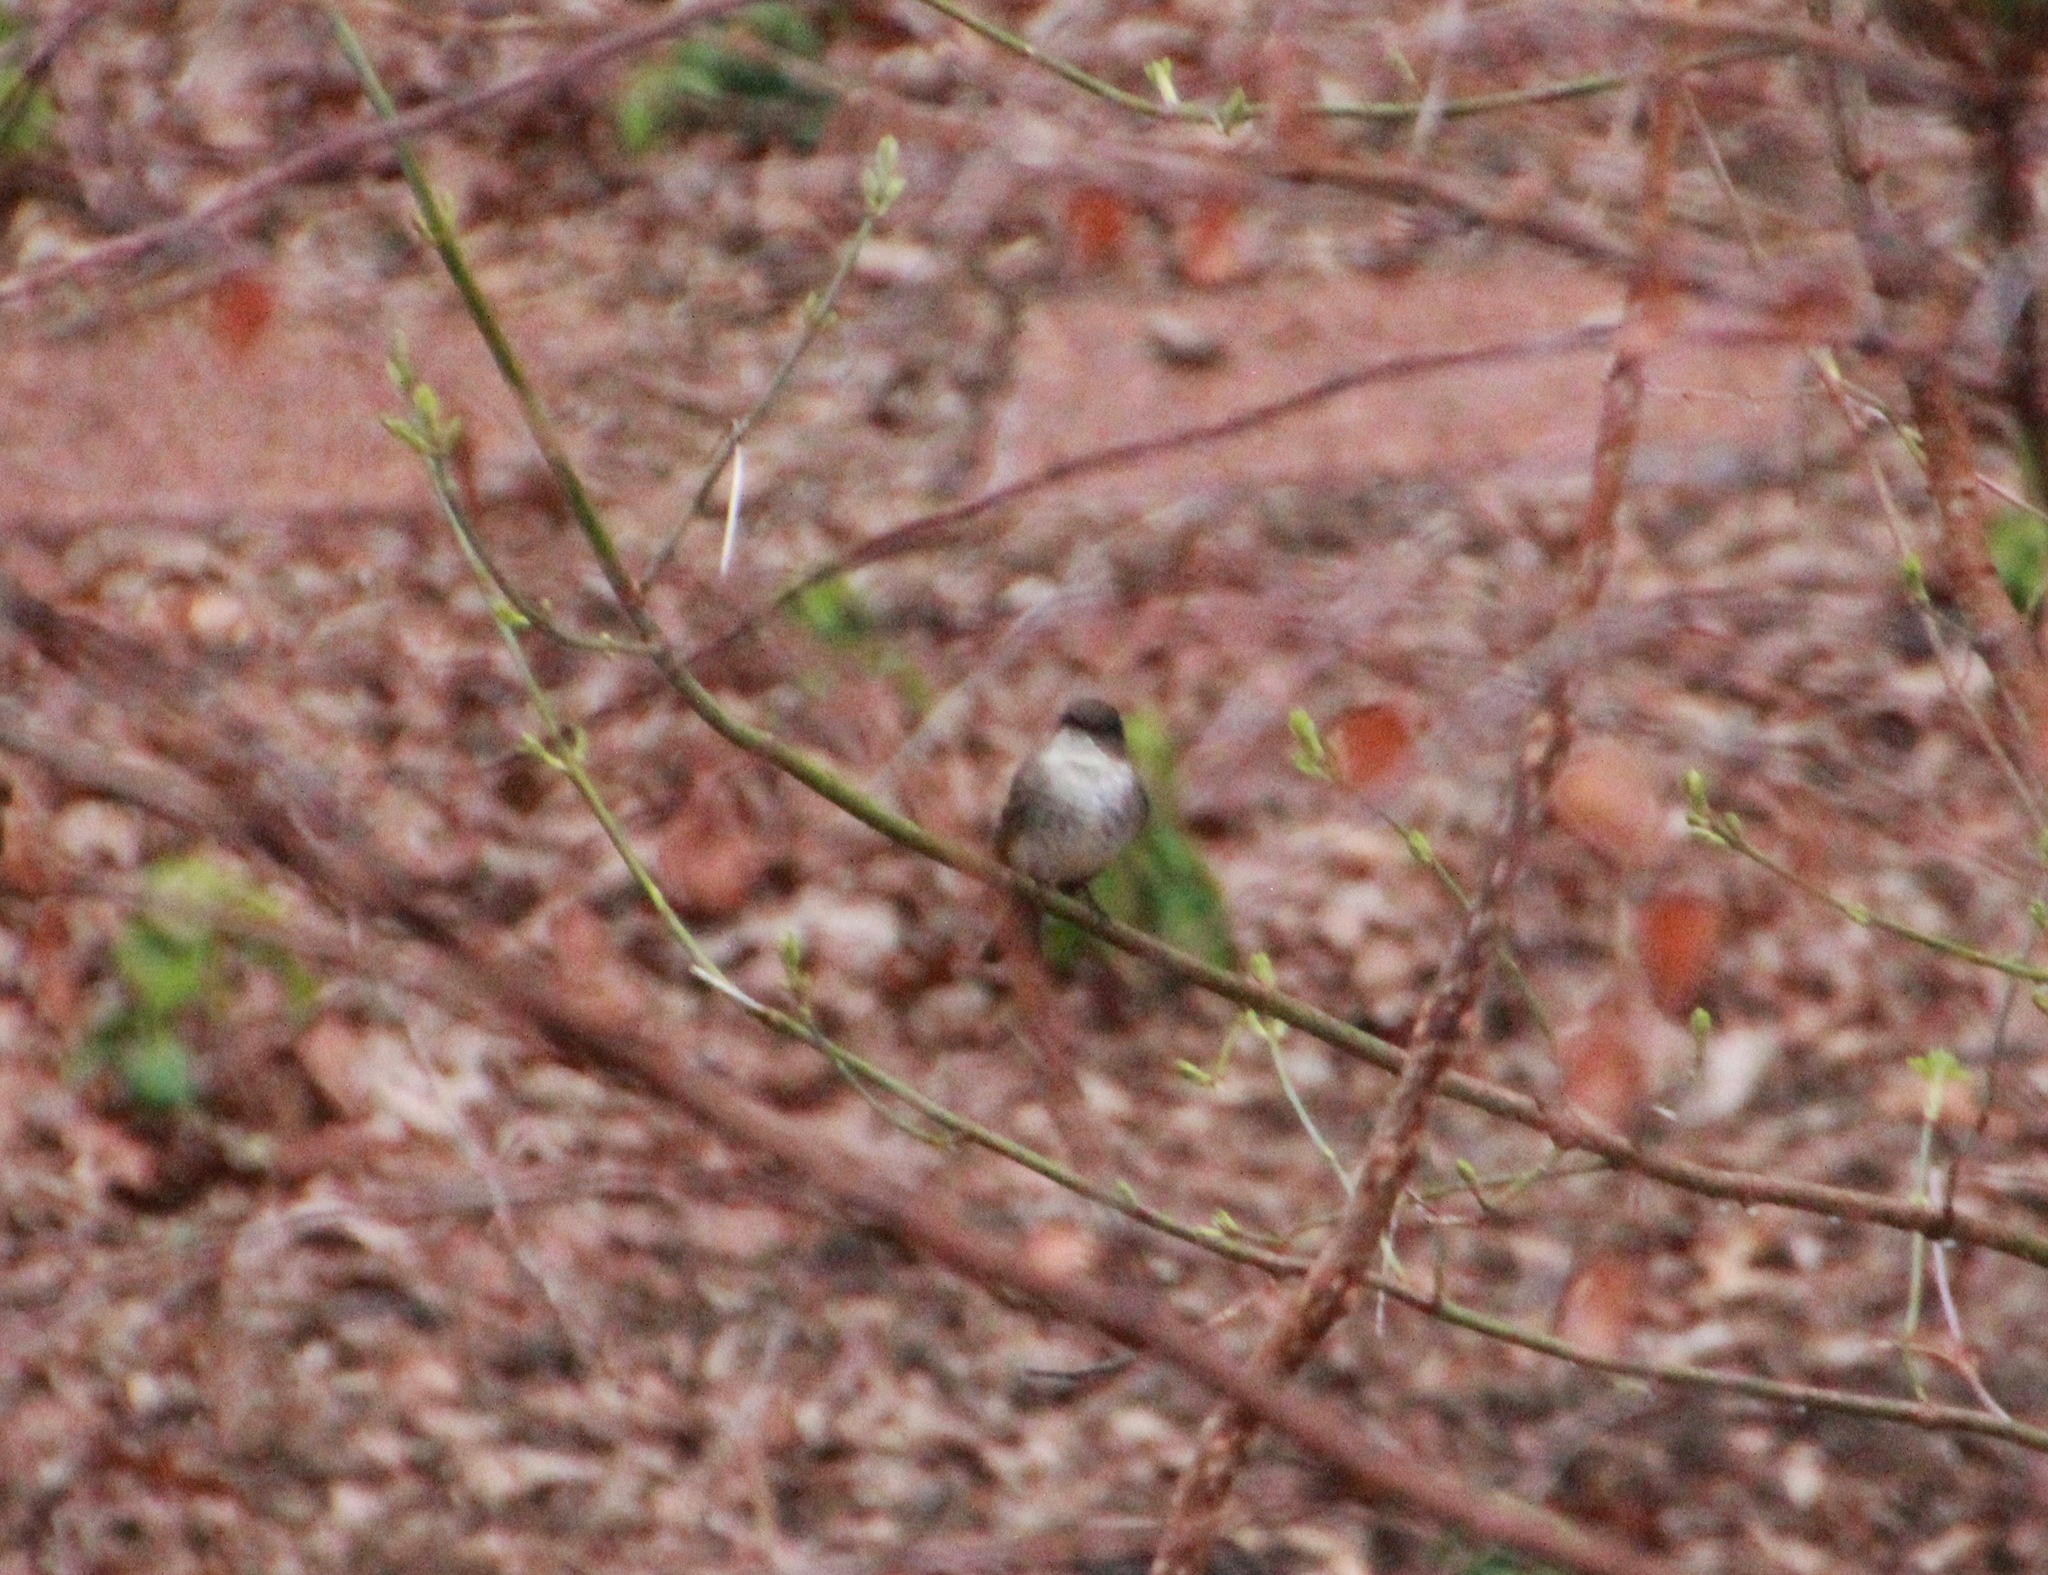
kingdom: Animalia
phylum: Chordata
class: Aves
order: Passeriformes
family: Tyrannidae
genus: Sayornis
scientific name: Sayornis phoebe
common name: Eastern phoebe
